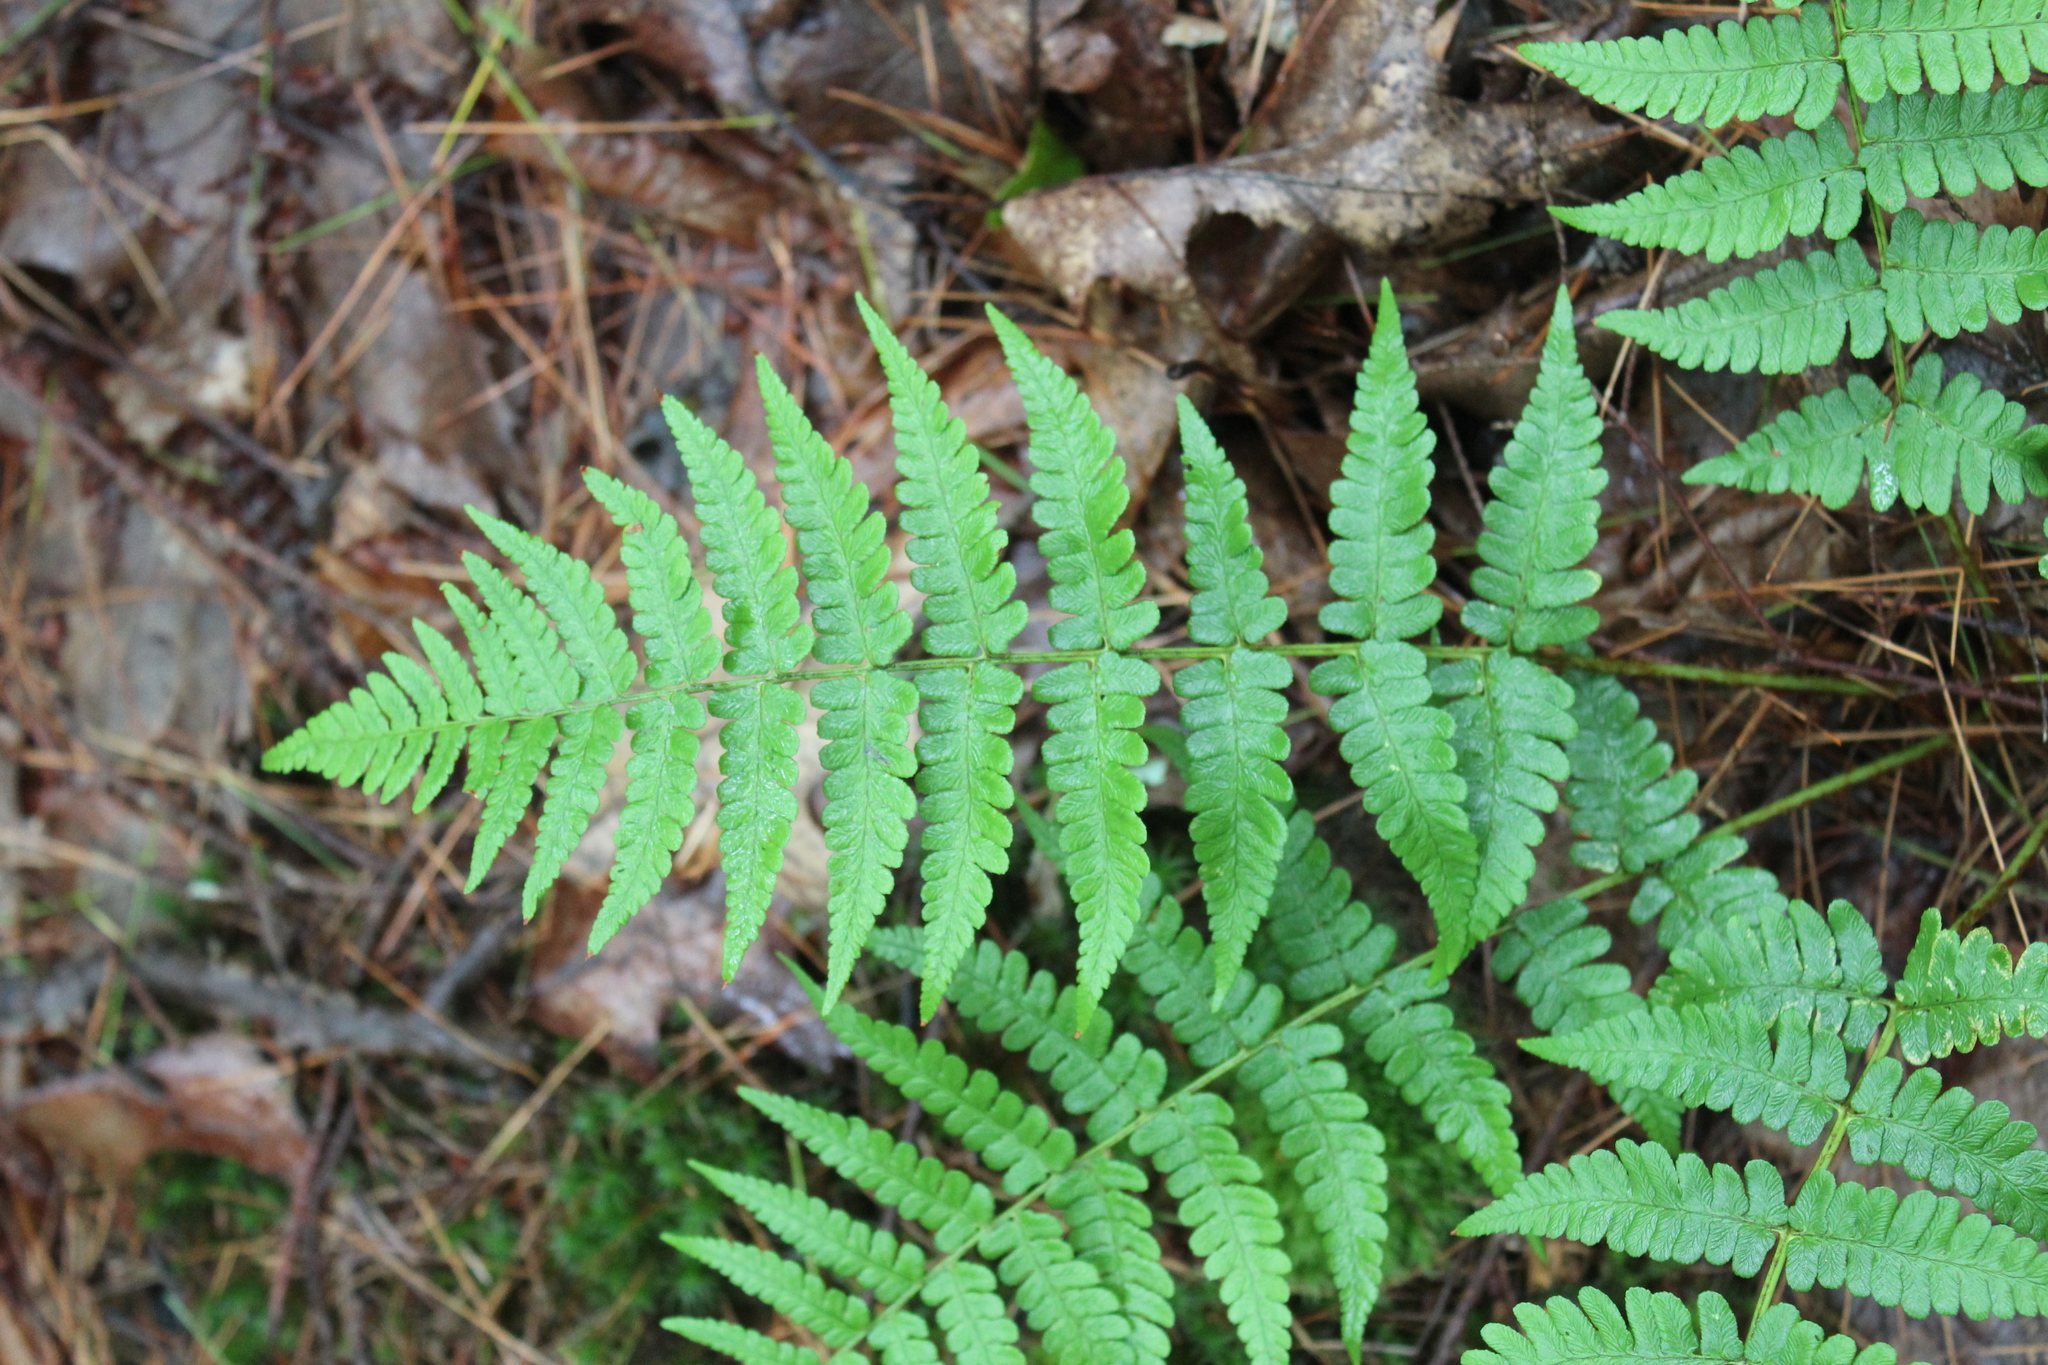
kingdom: Plantae
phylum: Tracheophyta
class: Polypodiopsida
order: Polypodiales
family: Dryopteridaceae
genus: Dryopteris
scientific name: Dryopteris marginalis
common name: Marginal wood fern
